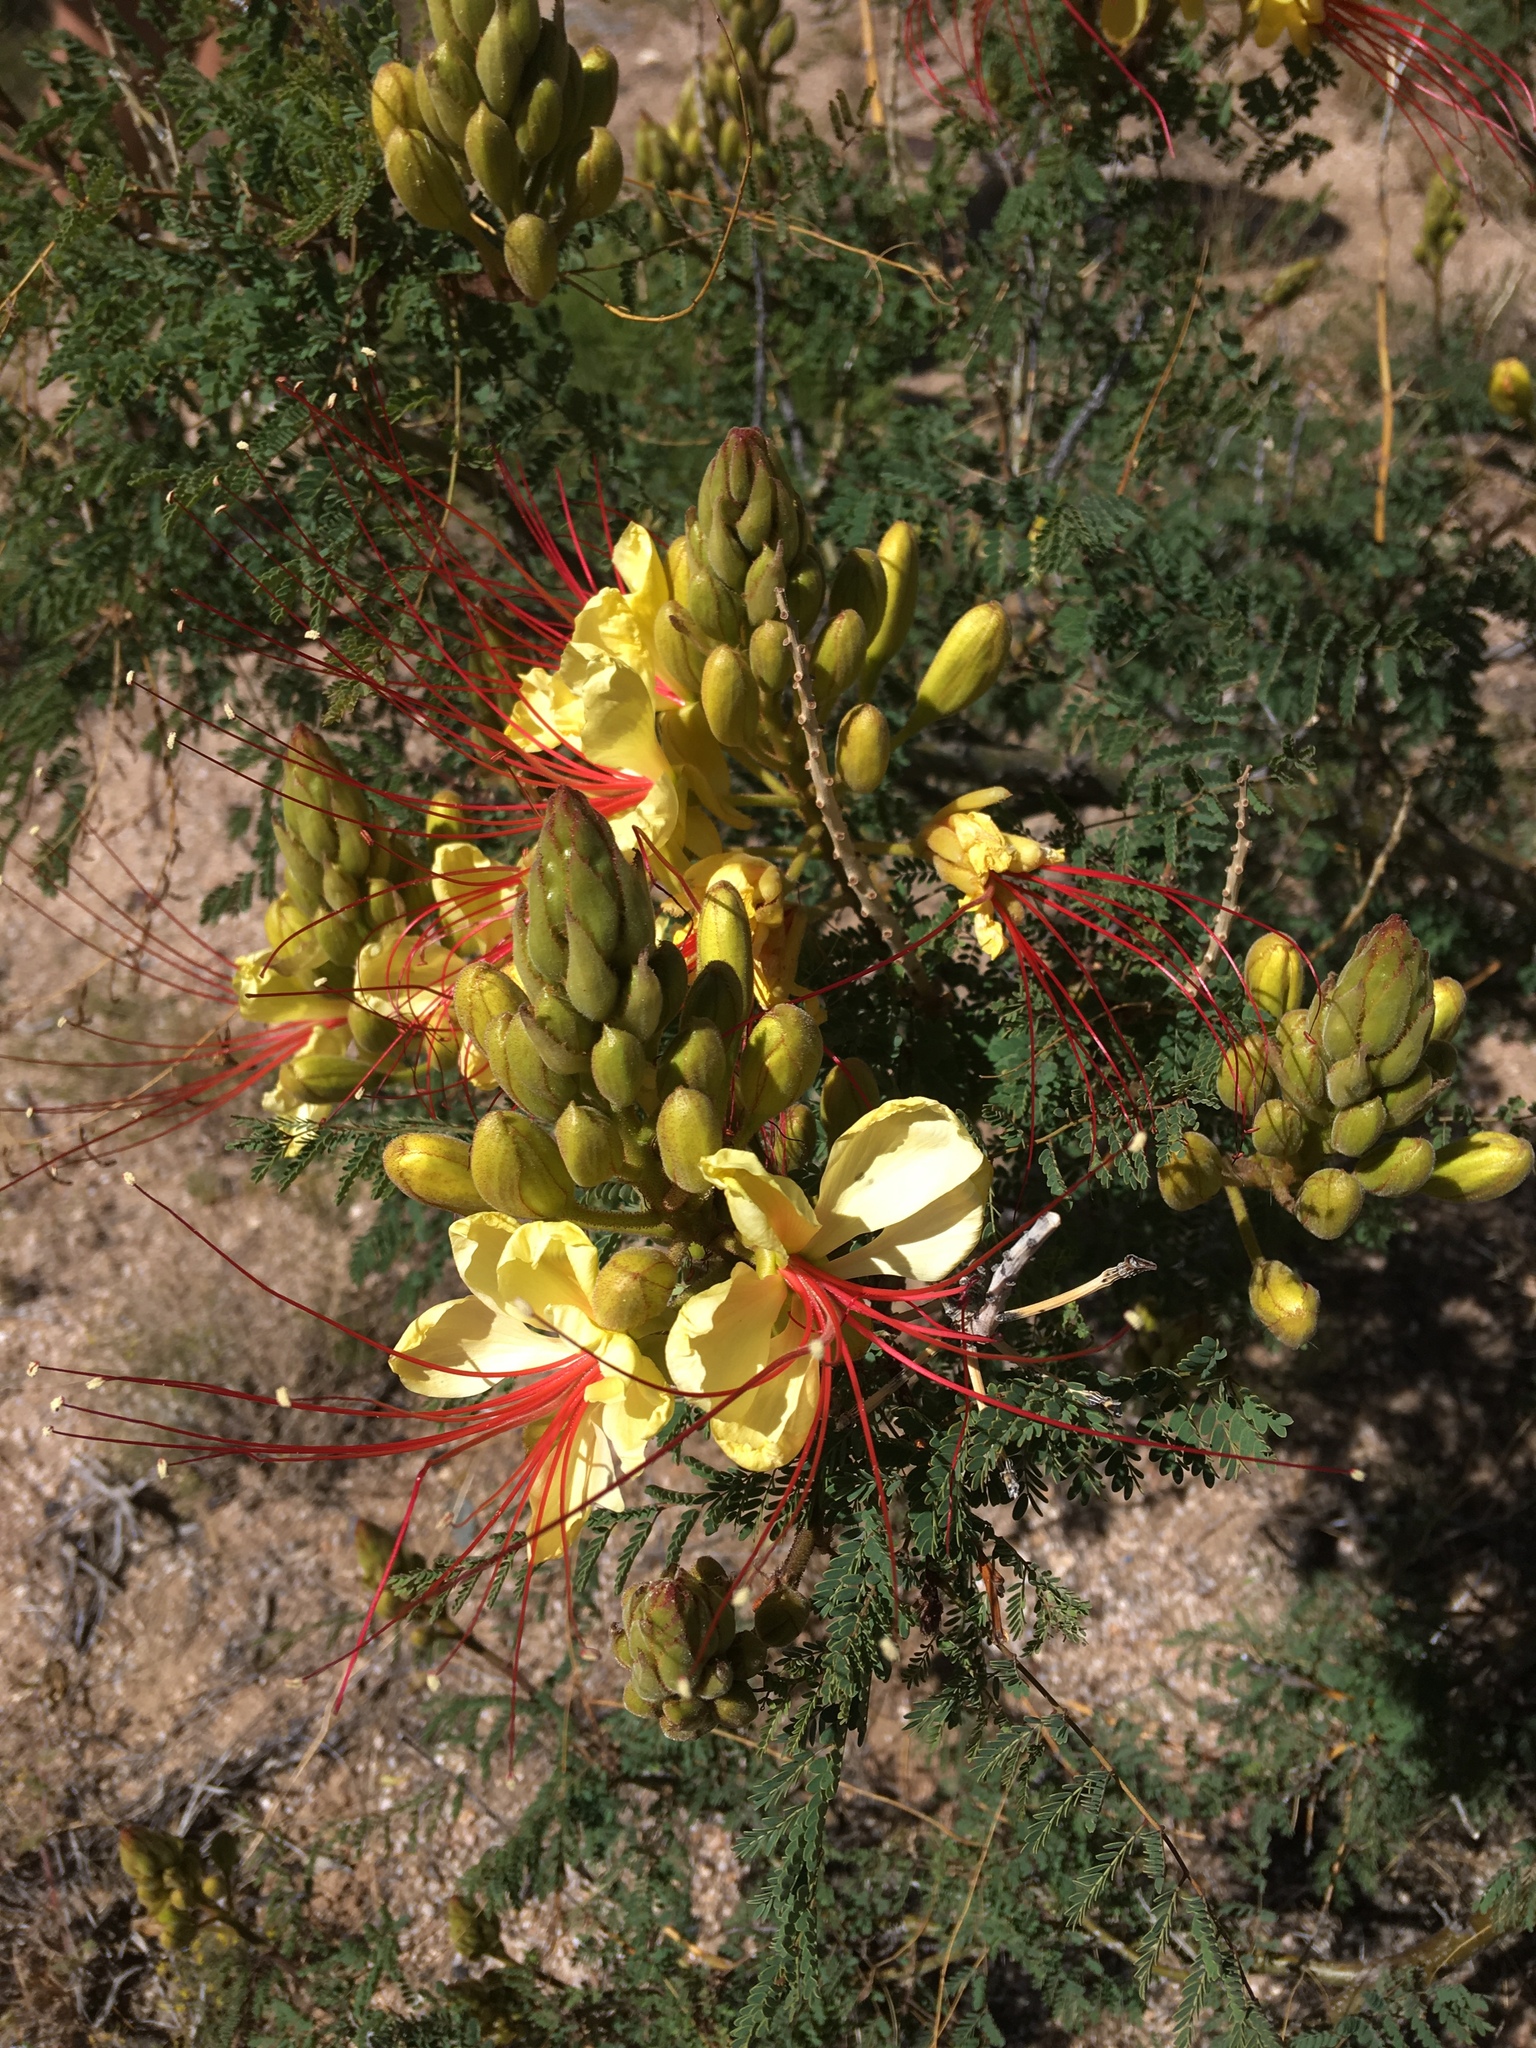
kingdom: Plantae
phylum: Tracheophyta
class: Magnoliopsida
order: Fabales
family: Fabaceae
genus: Erythrostemon
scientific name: Erythrostemon gilliesii
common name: Bird-of-paradise shrub
